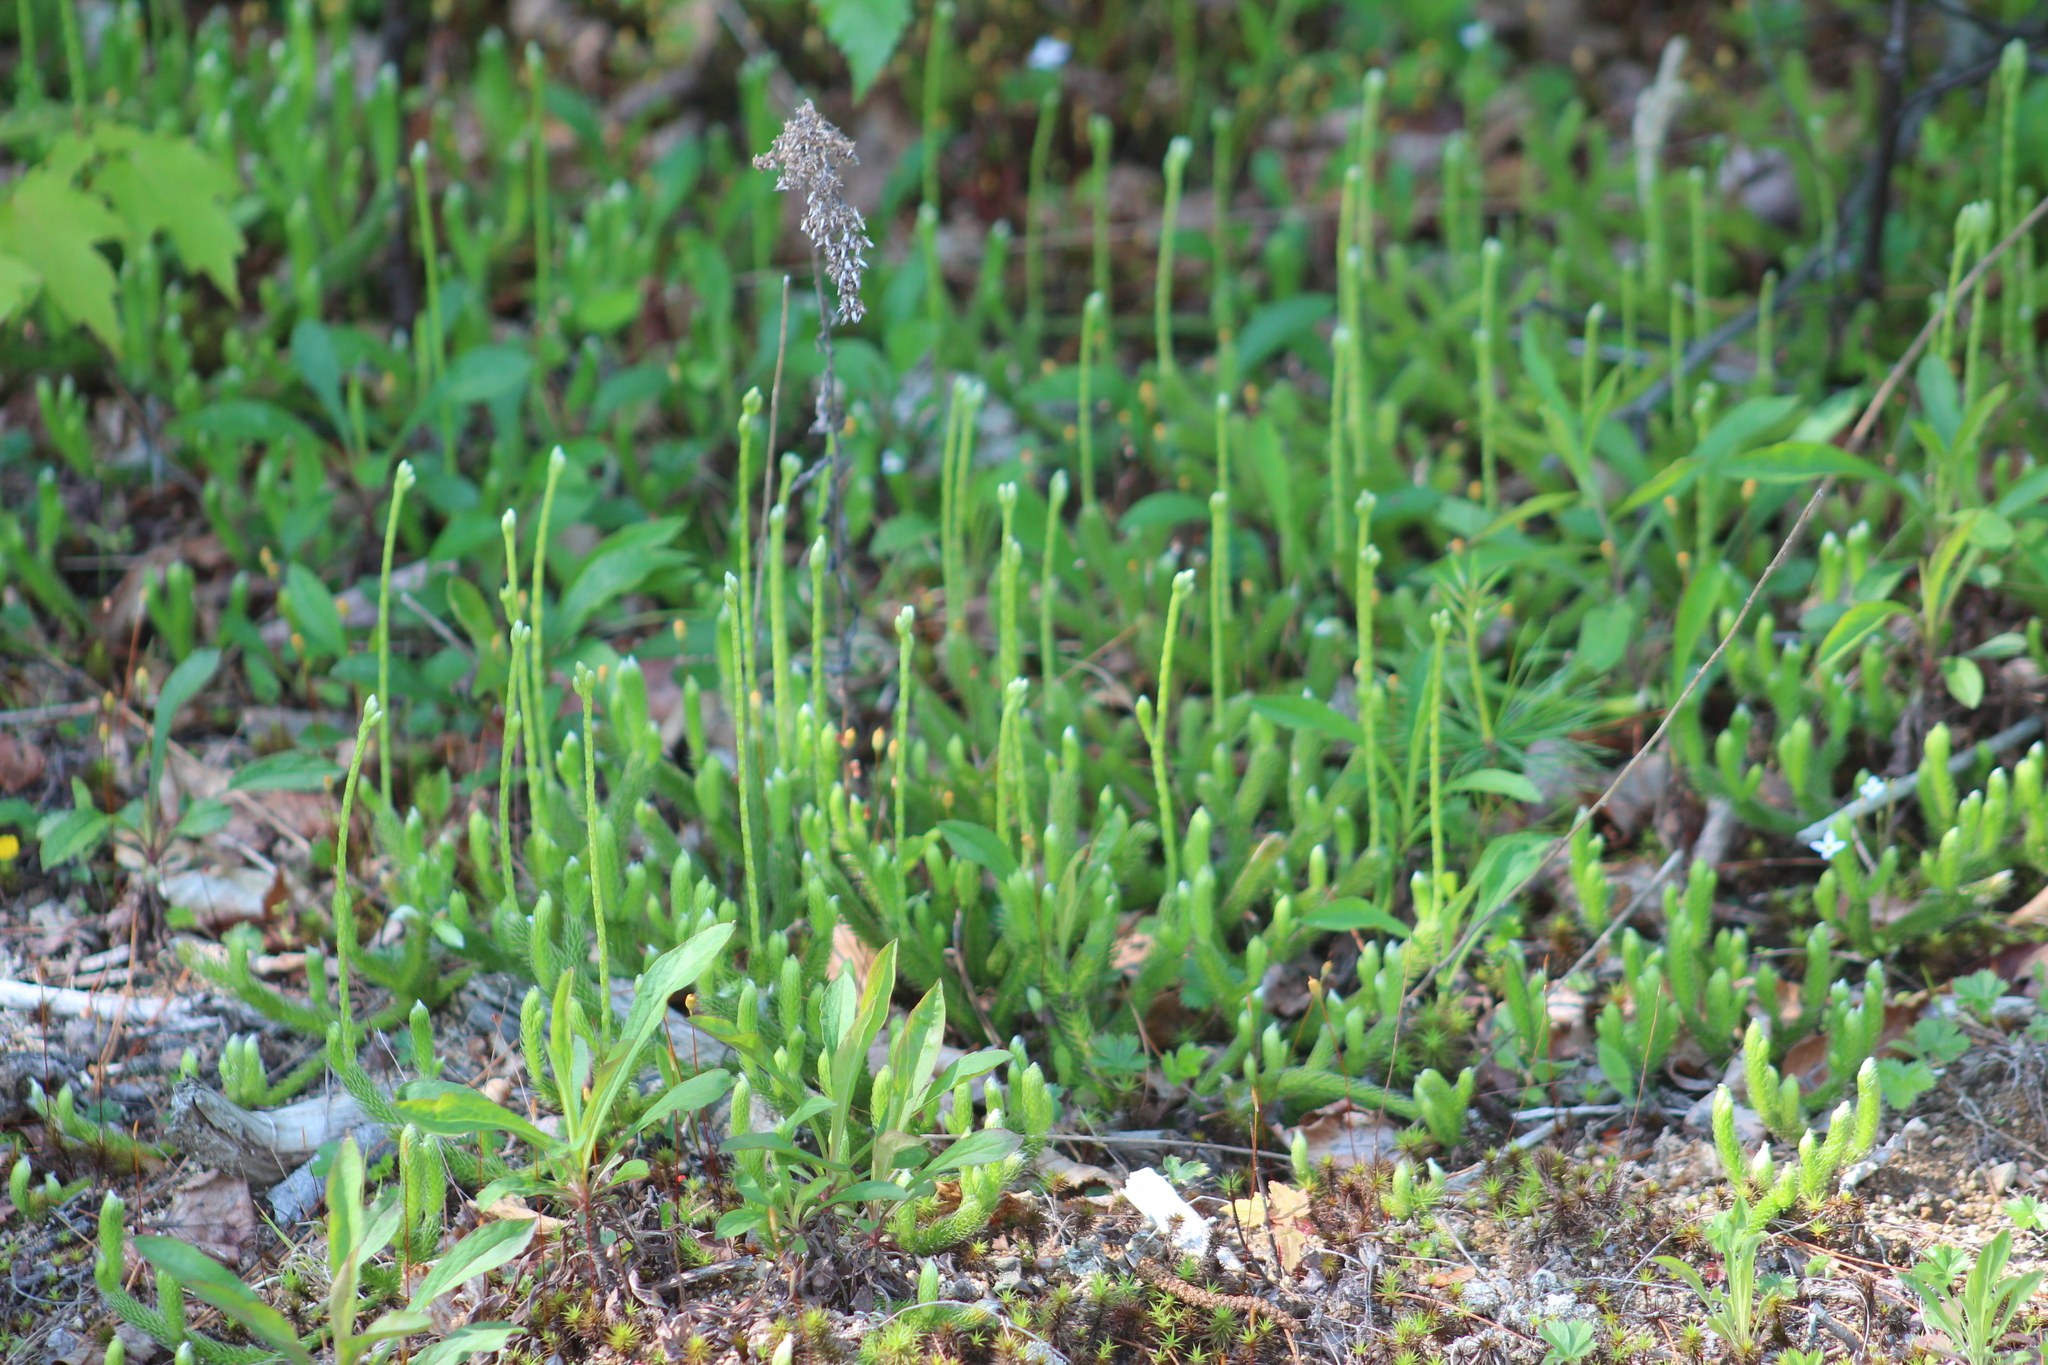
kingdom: Plantae
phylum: Tracheophyta
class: Lycopodiopsida
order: Lycopodiales
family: Lycopodiaceae
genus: Lycopodium
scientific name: Lycopodium clavatum
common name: Stag's-horn clubmoss
